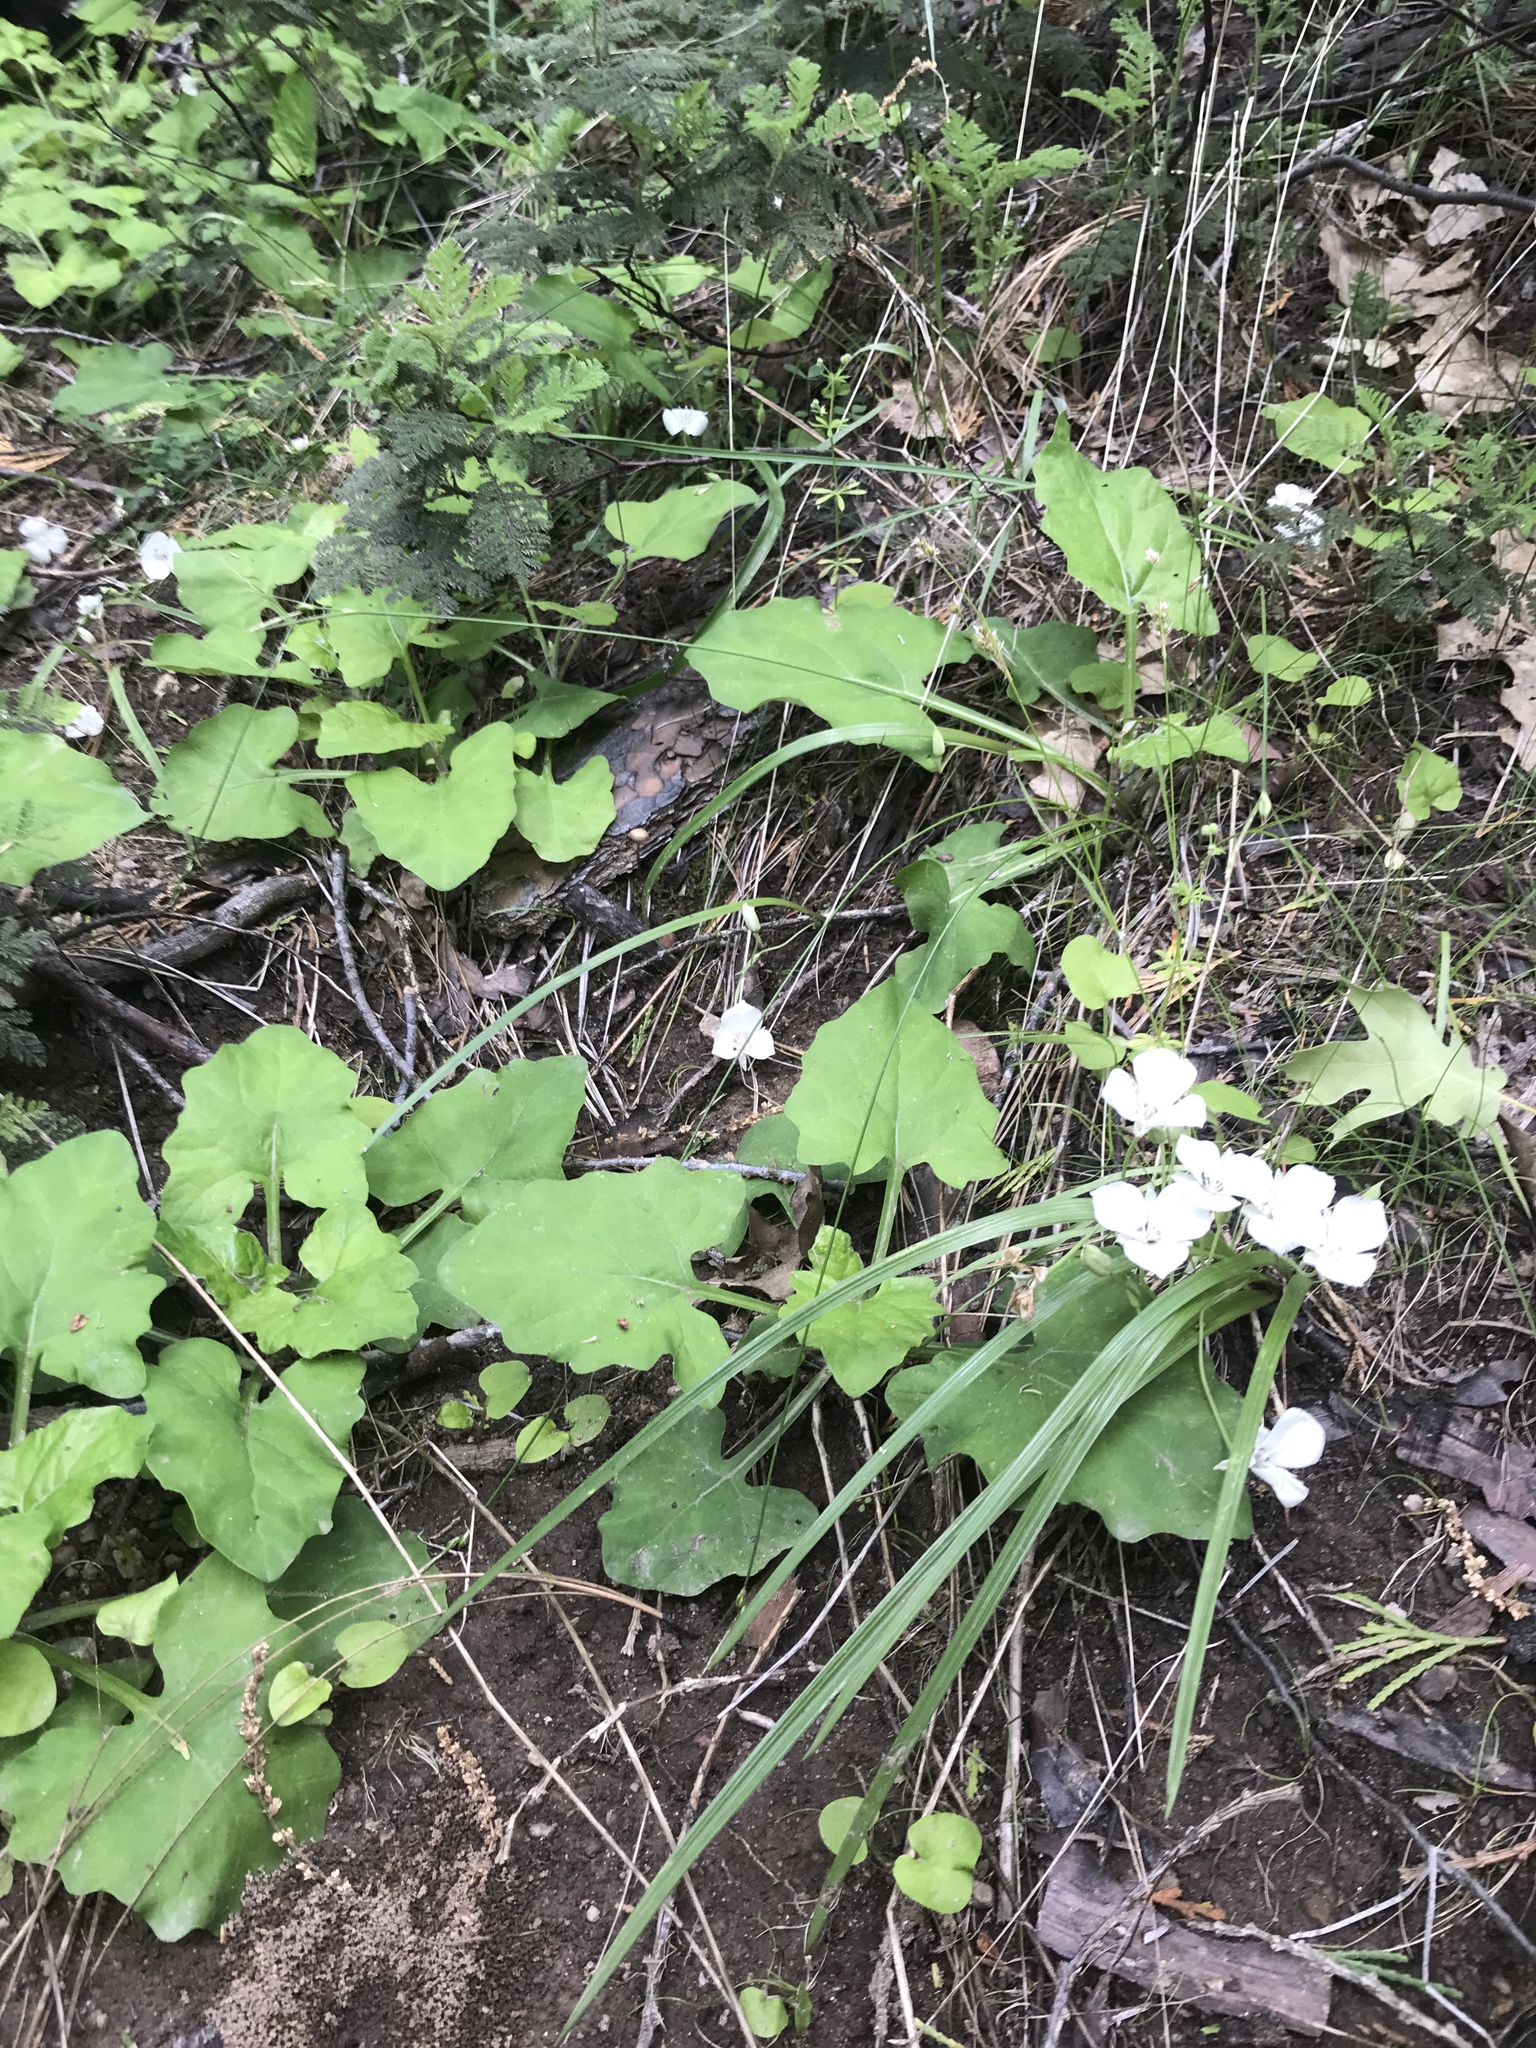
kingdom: Plantae
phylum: Tracheophyta
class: Liliopsida
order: Liliales
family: Liliaceae
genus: Calochortus
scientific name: Calochortus minimus
